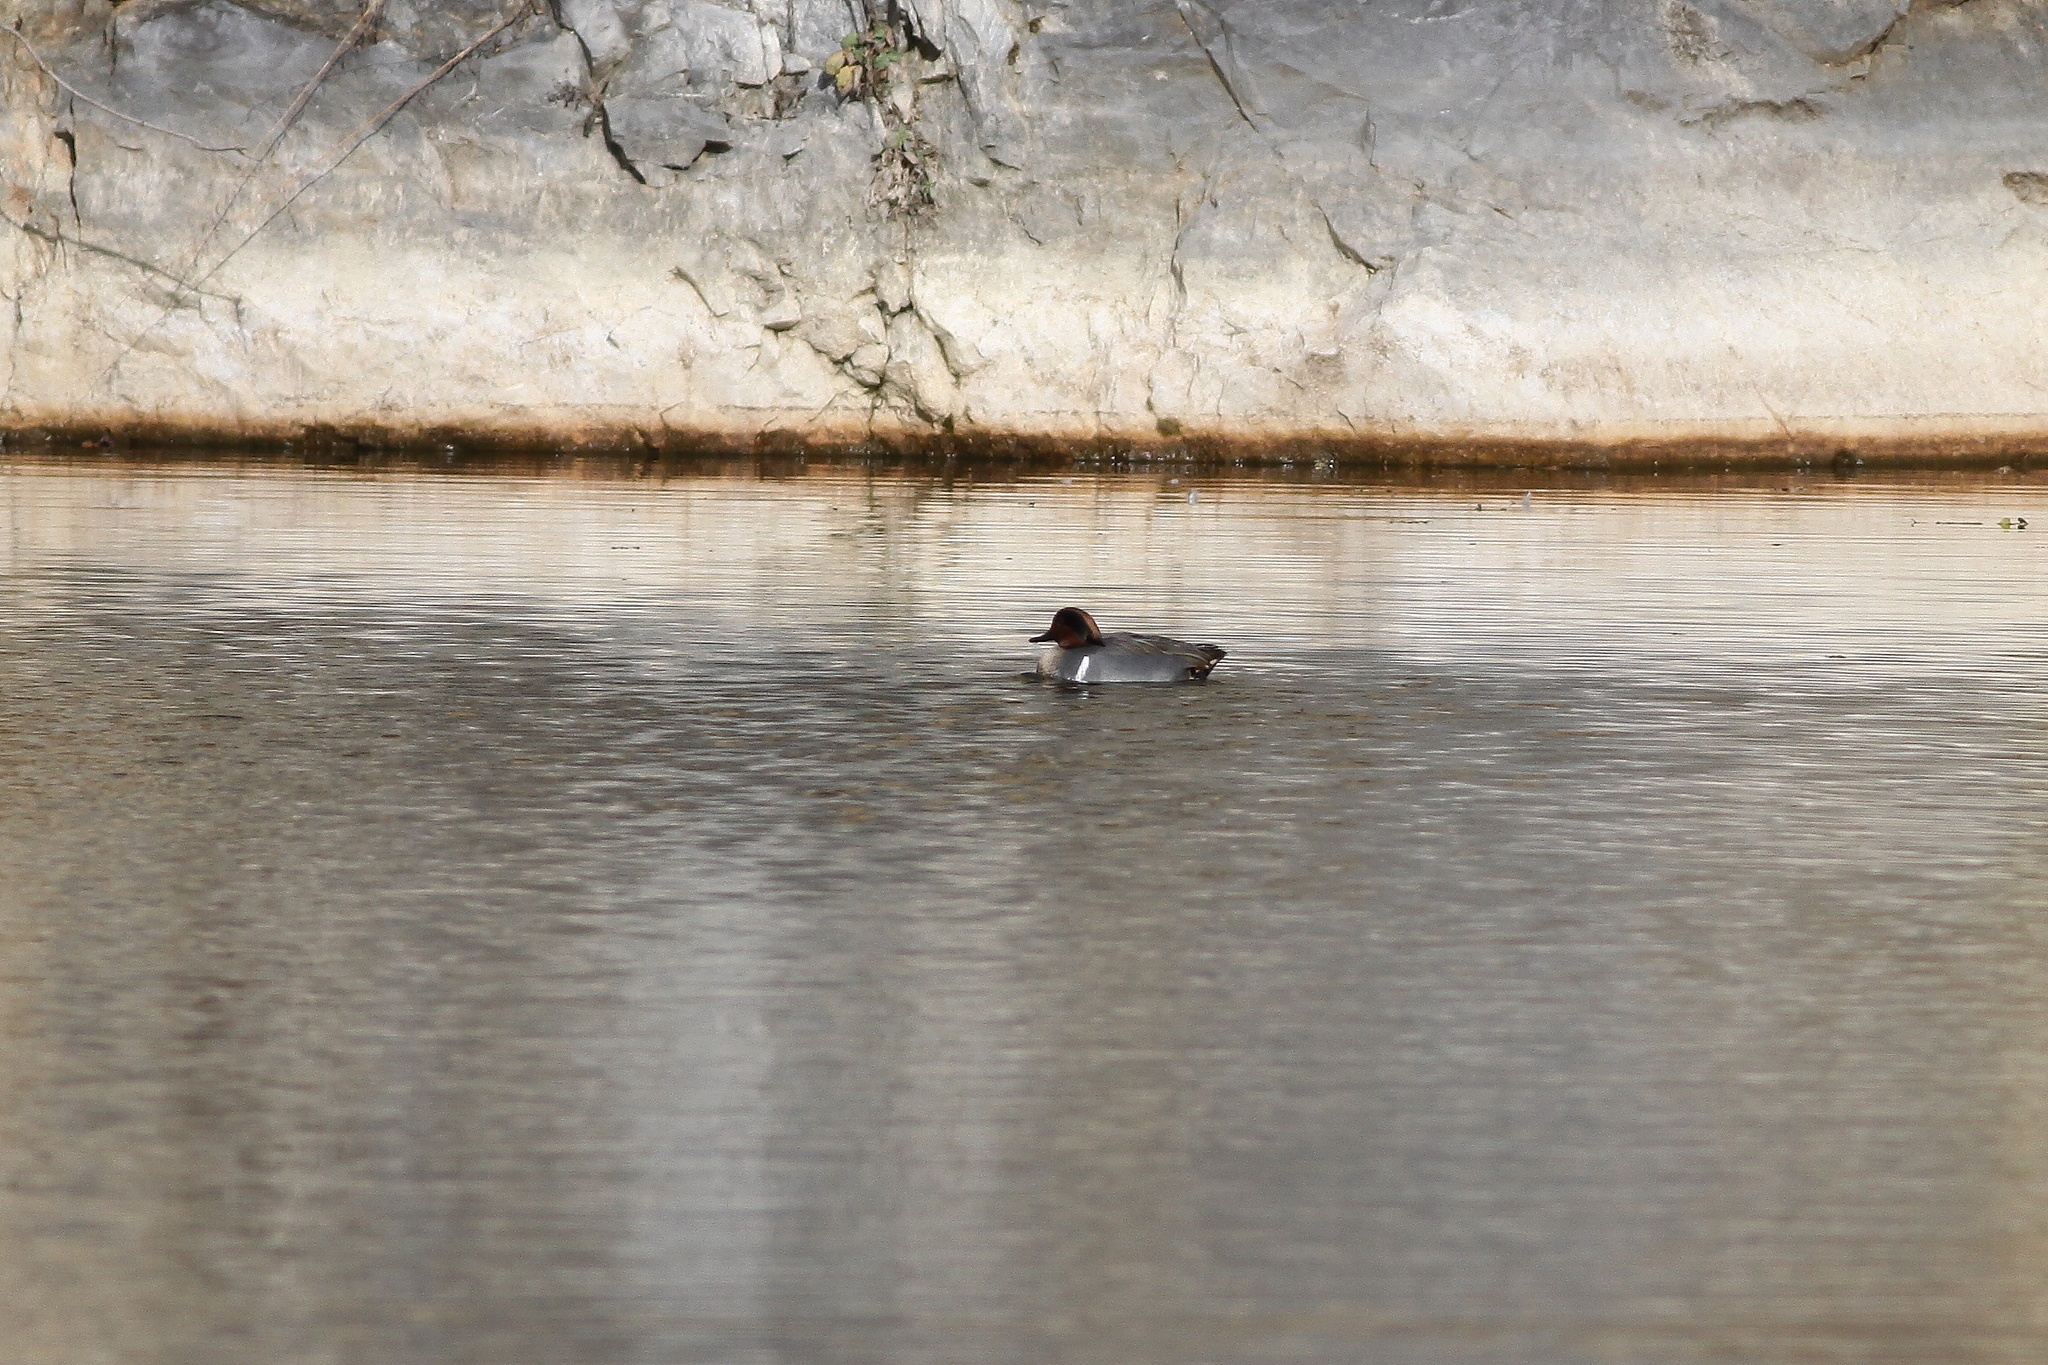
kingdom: Animalia
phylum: Chordata
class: Aves
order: Anseriformes
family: Anatidae
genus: Anas
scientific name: Anas crecca
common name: Eurasian teal
